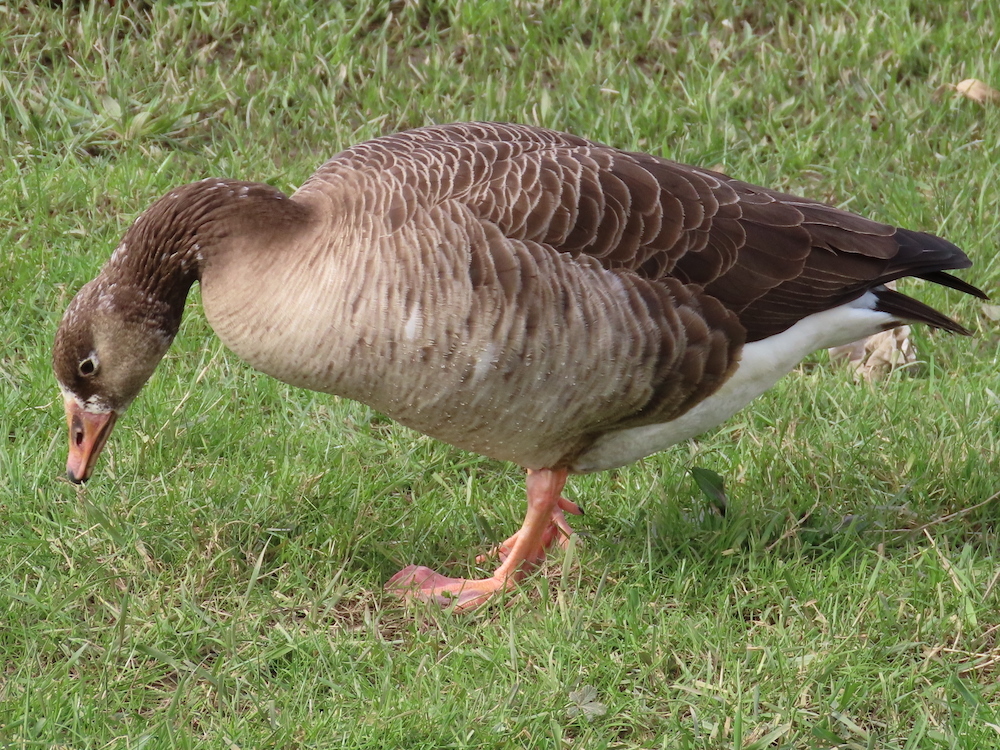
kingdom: Animalia
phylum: Chordata
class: Aves
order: Anseriformes
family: Anatidae
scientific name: Anatidae
